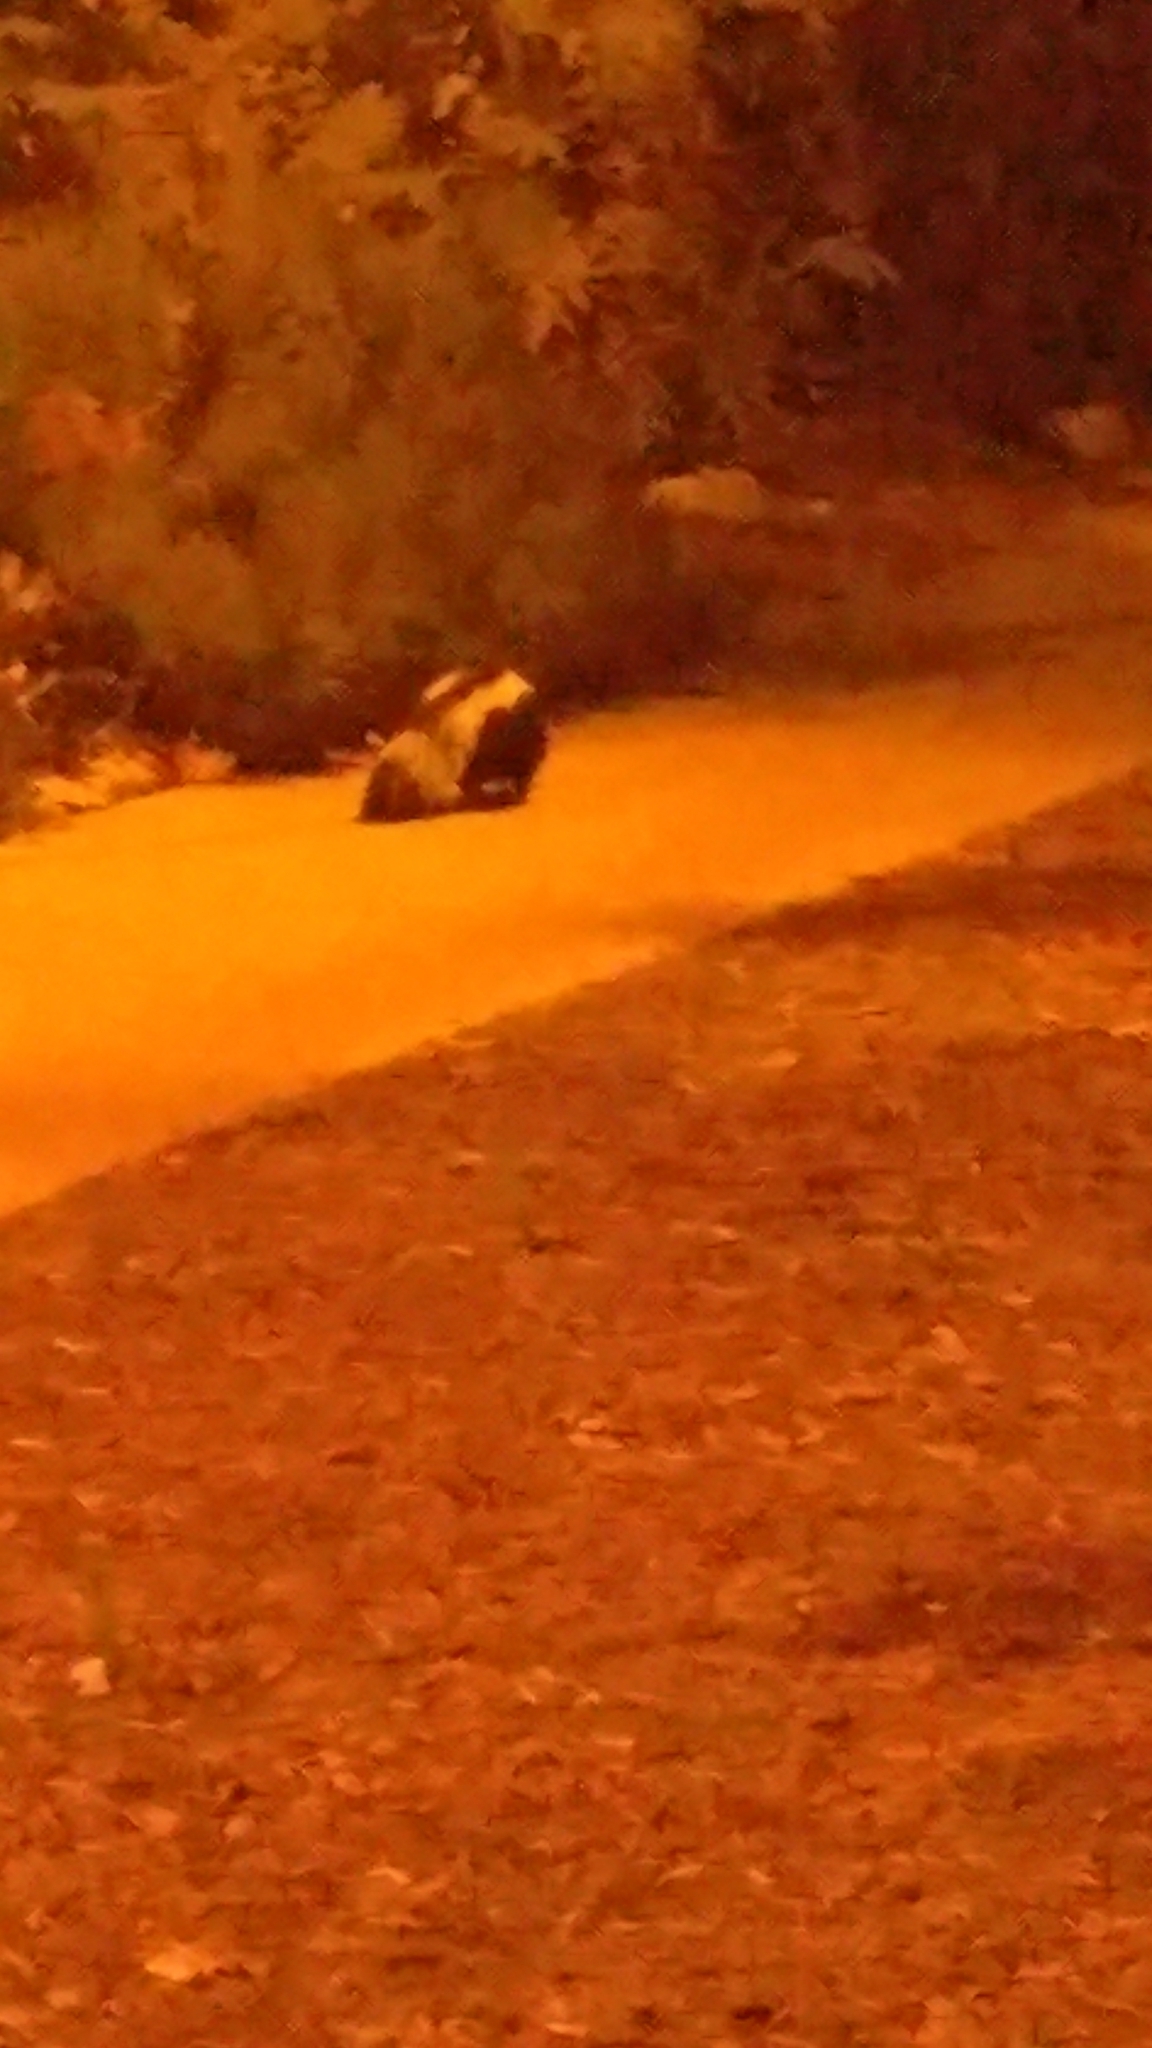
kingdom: Animalia
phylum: Chordata
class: Mammalia
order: Carnivora
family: Mephitidae
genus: Mephitis
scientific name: Mephitis mephitis
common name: Striped skunk
